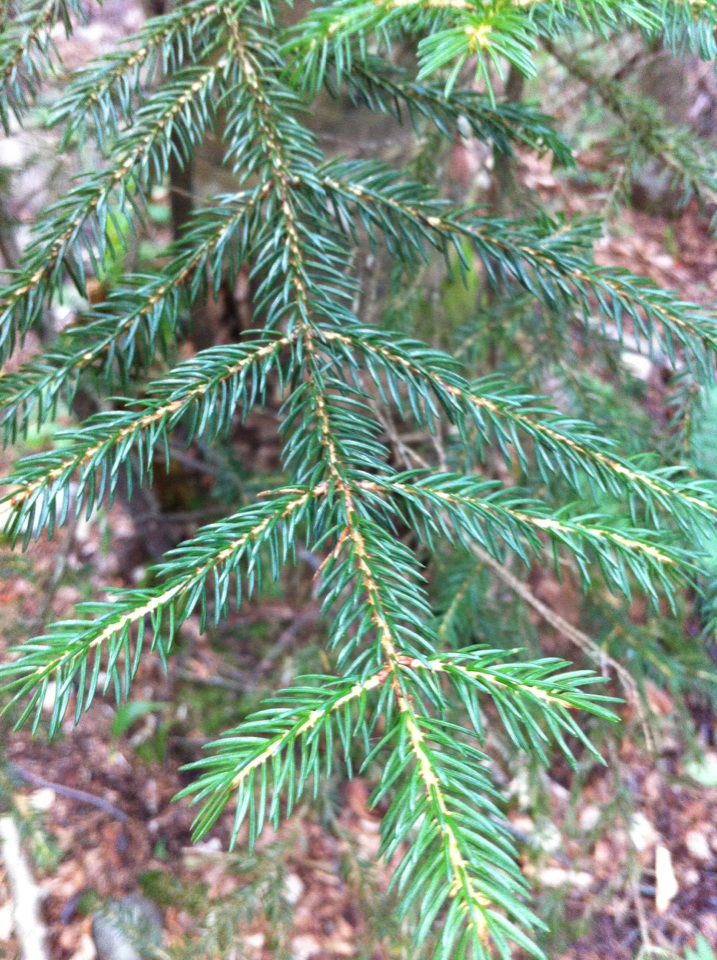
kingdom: Plantae
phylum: Tracheophyta
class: Pinopsida
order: Pinales
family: Pinaceae
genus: Picea
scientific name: Picea rubens
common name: Red spruce
